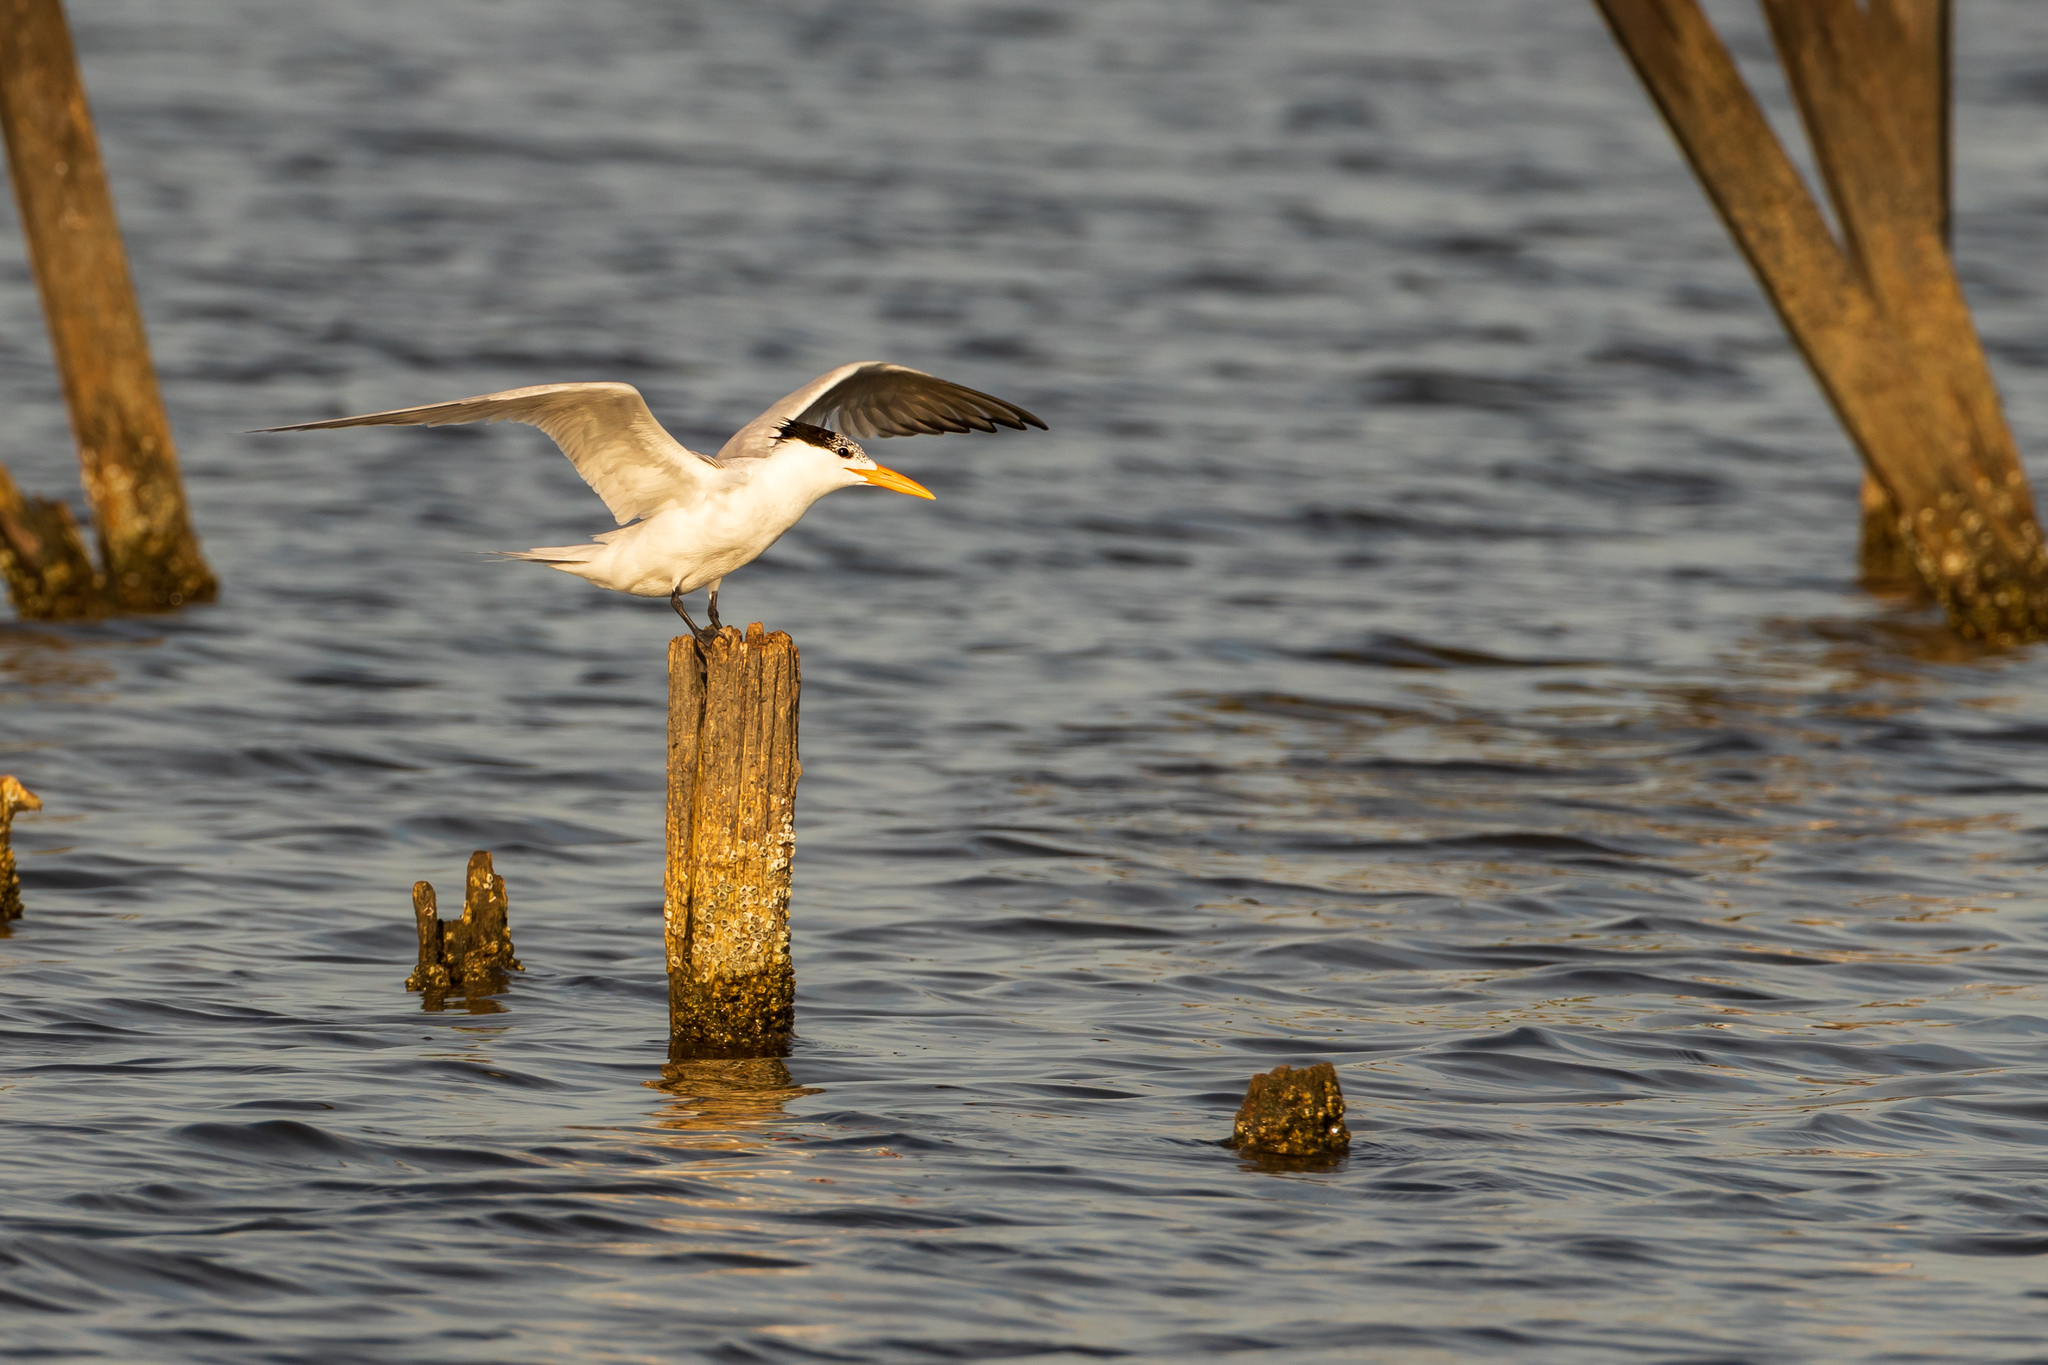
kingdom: Animalia
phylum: Chordata
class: Aves
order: Charadriiformes
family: Laridae
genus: Thalasseus
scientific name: Thalasseus maximus
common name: Royal tern
